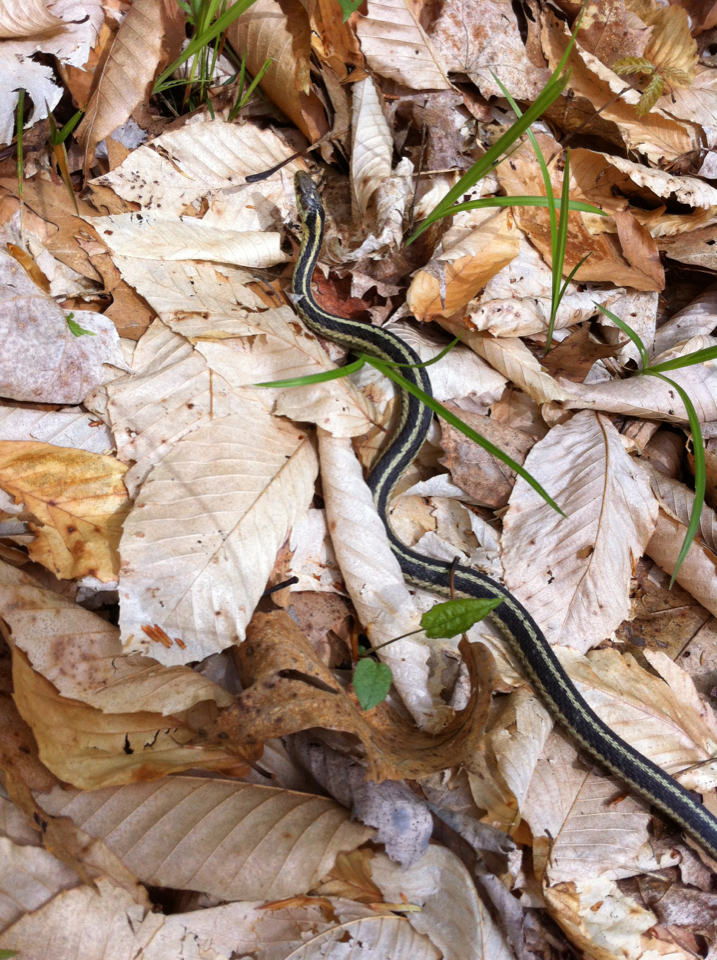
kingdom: Animalia
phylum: Chordata
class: Squamata
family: Colubridae
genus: Thamnophis
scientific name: Thamnophis sirtalis
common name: Common garter snake
